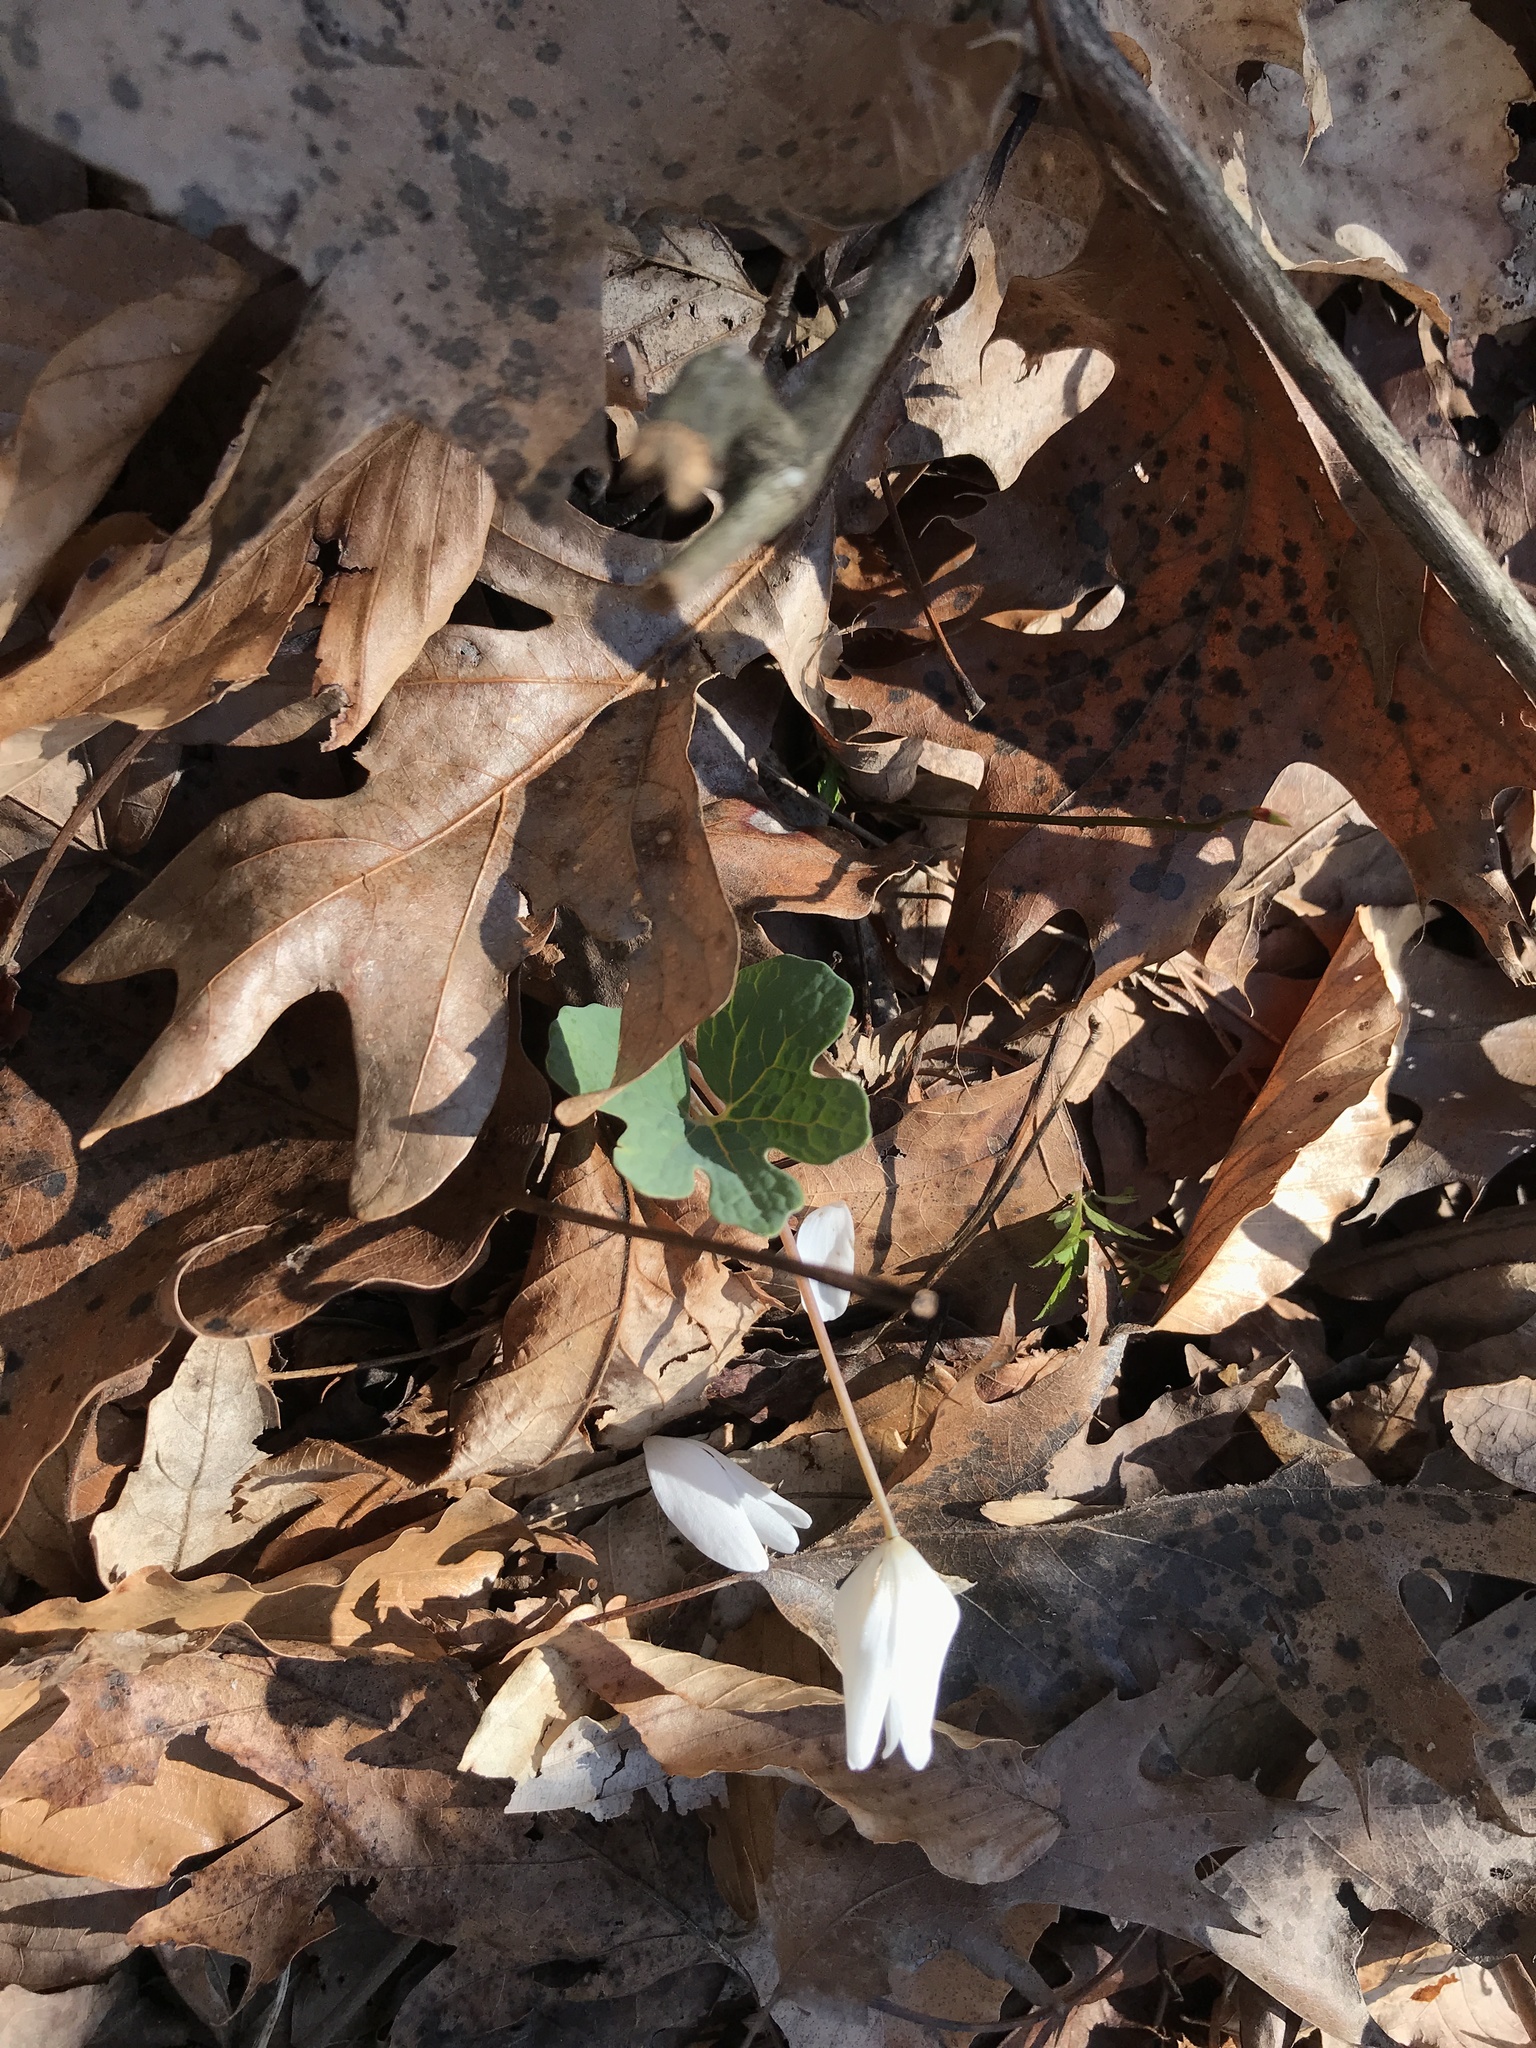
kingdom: Plantae
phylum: Tracheophyta
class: Magnoliopsida
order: Ranunculales
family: Papaveraceae
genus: Sanguinaria
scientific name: Sanguinaria canadensis
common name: Bloodroot
